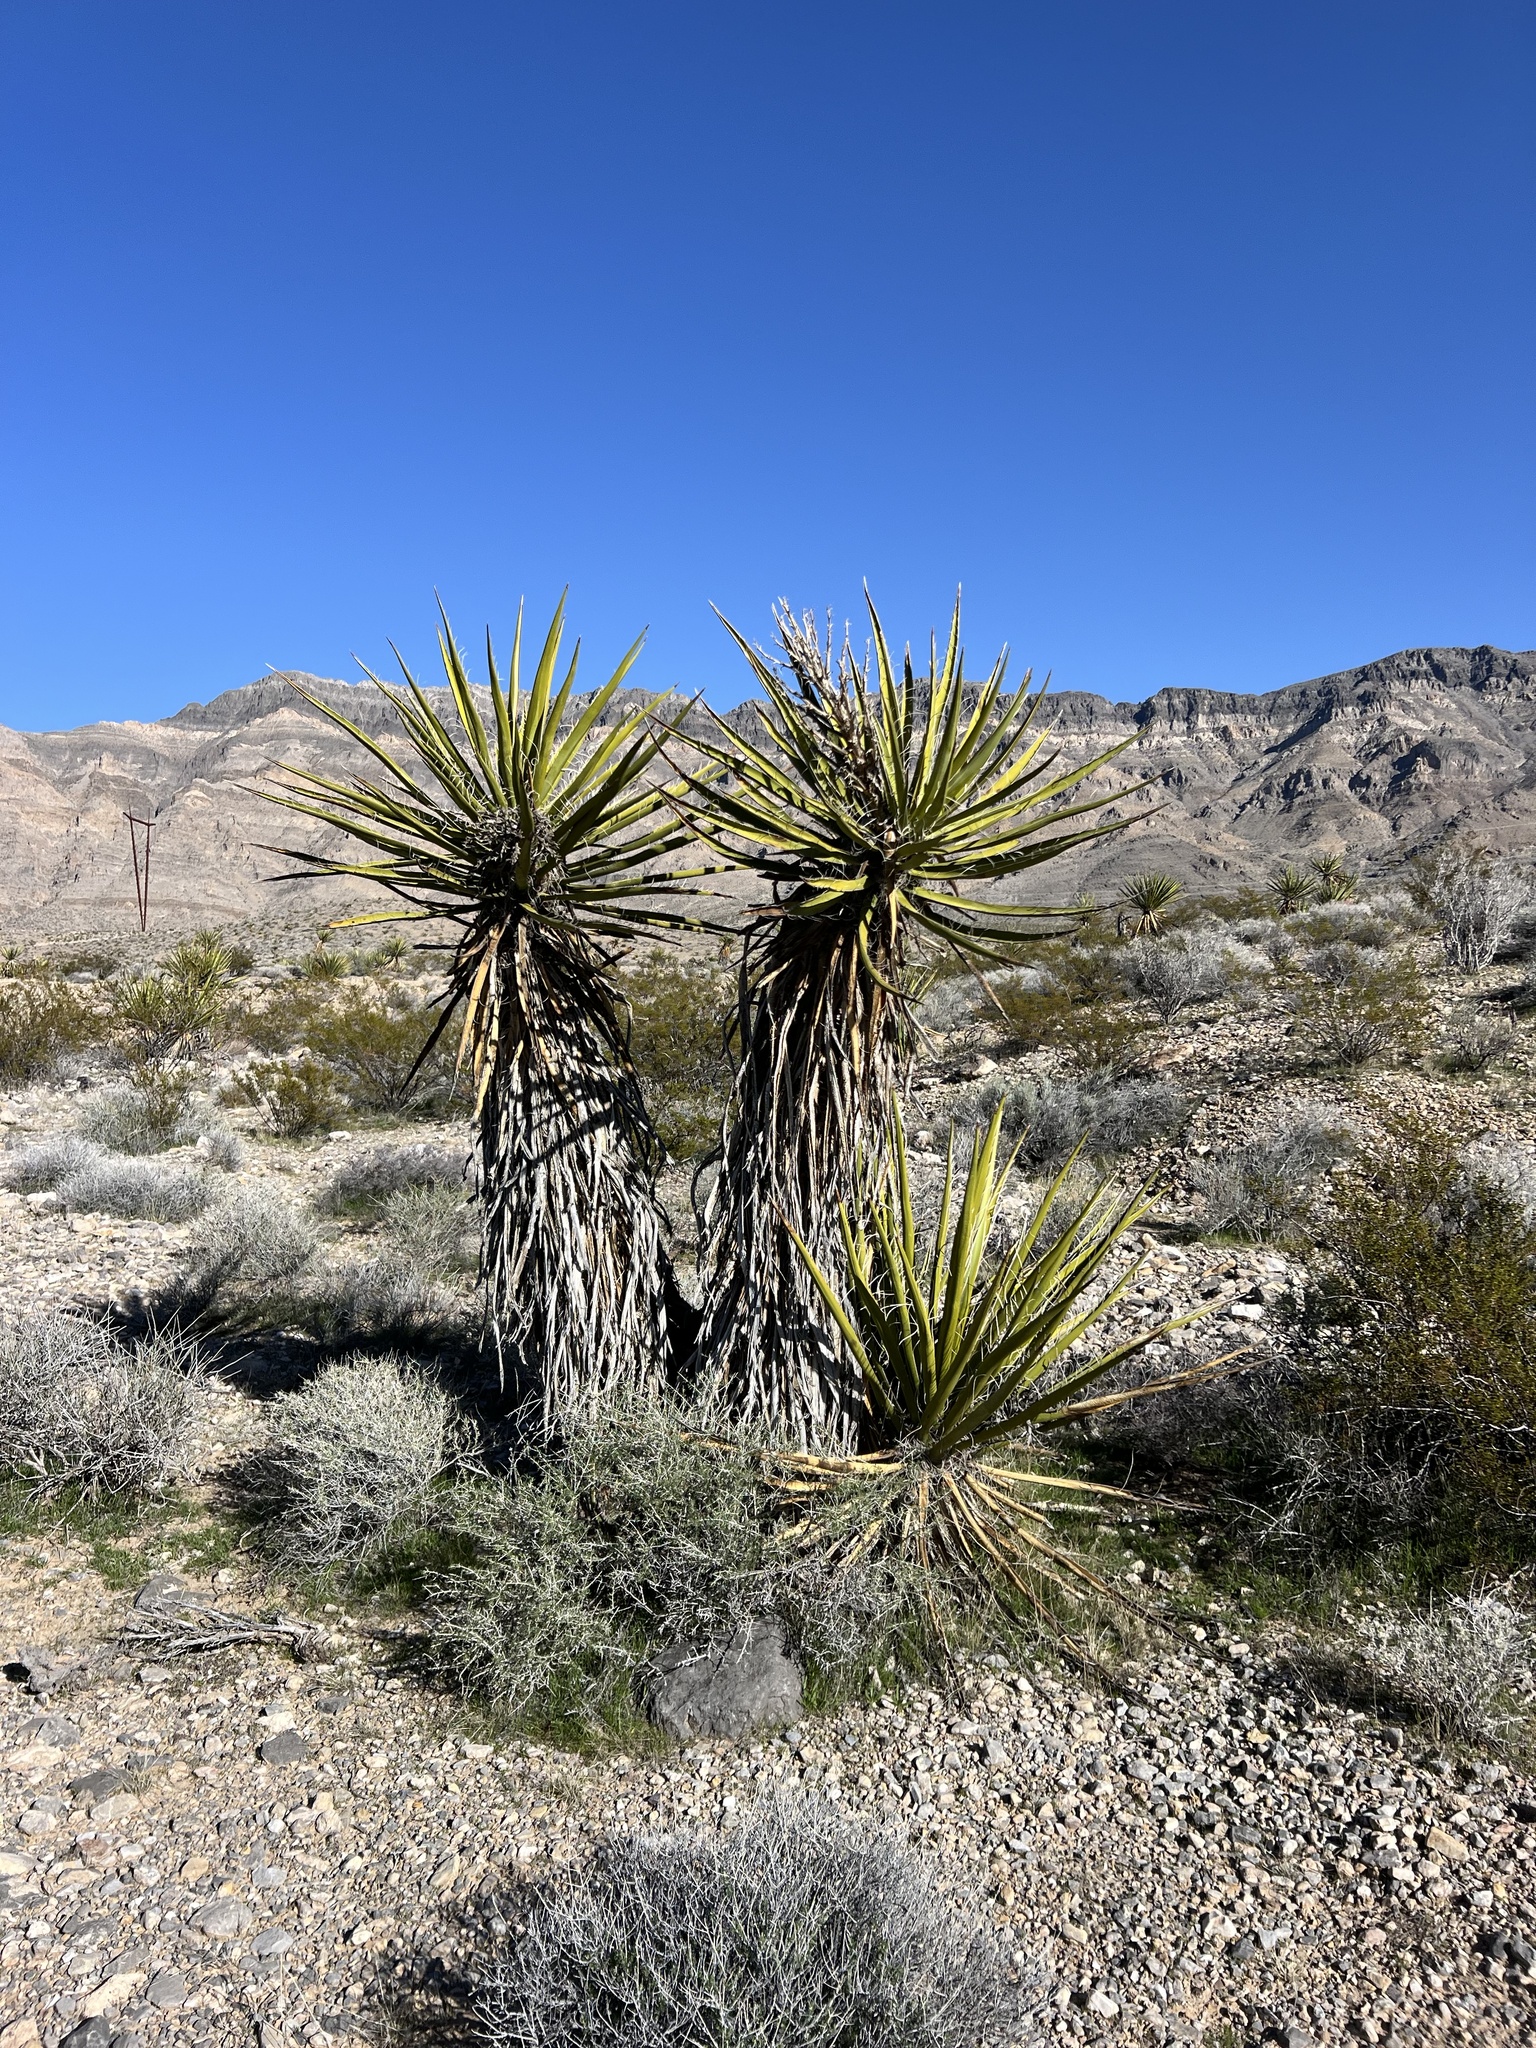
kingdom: Plantae
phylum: Tracheophyta
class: Liliopsida
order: Asparagales
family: Asparagaceae
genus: Yucca
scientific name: Yucca schidigera
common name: Mojave yucca
